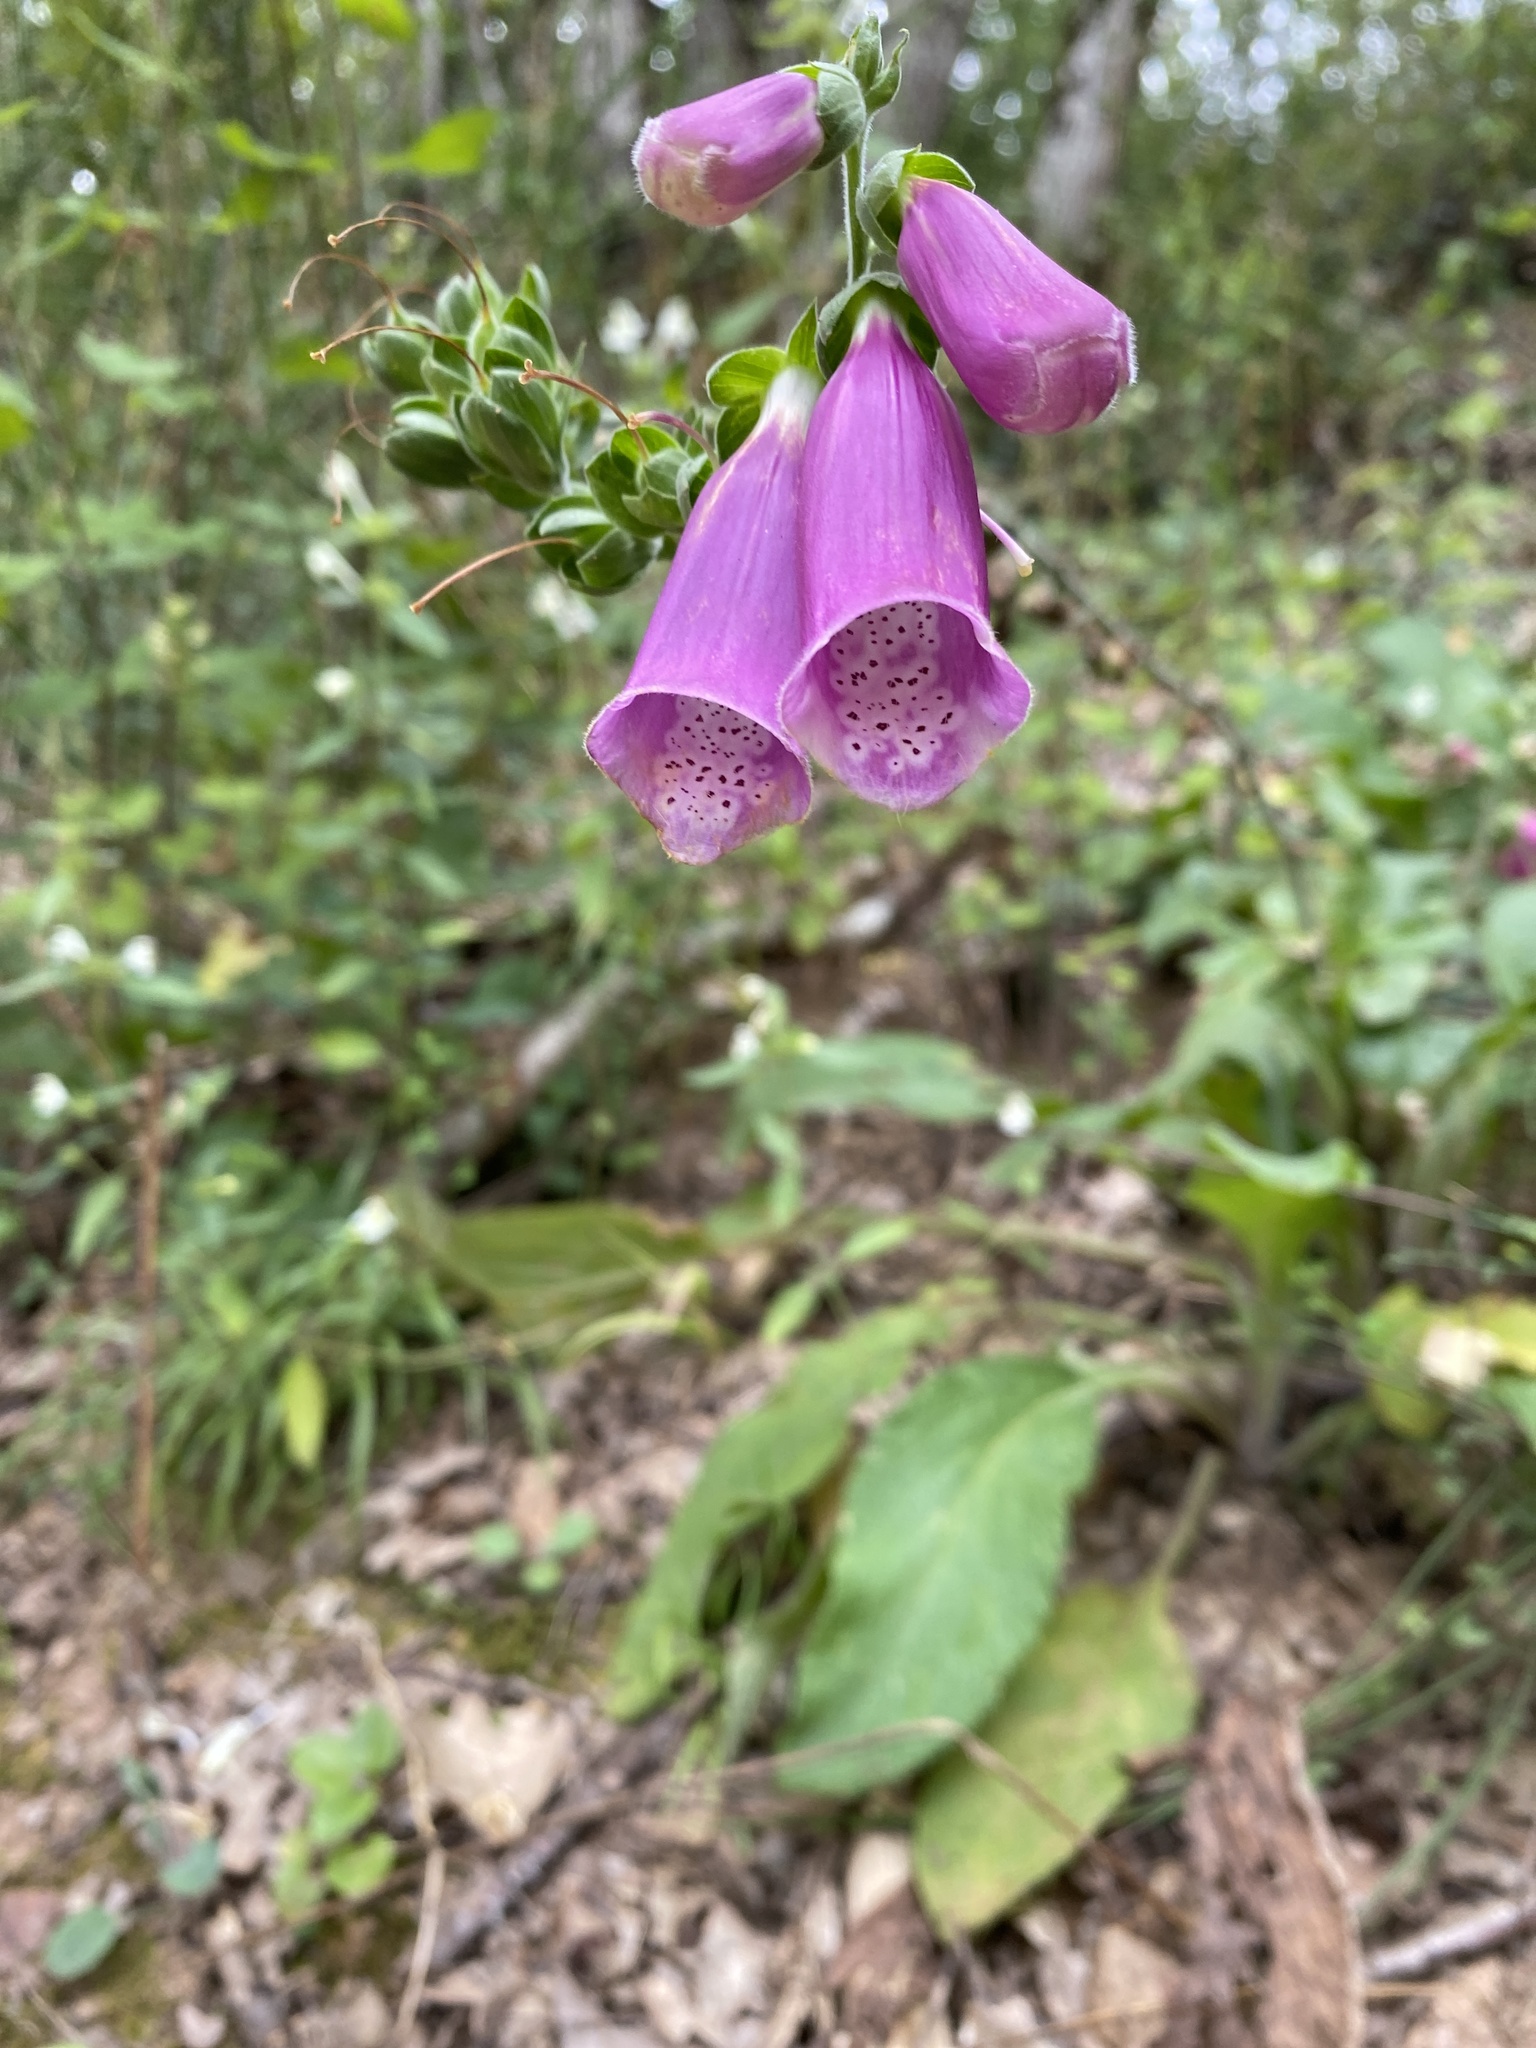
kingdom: Plantae
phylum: Tracheophyta
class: Magnoliopsida
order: Lamiales
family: Plantaginaceae
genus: Digitalis
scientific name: Digitalis purpurea
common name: Foxglove
